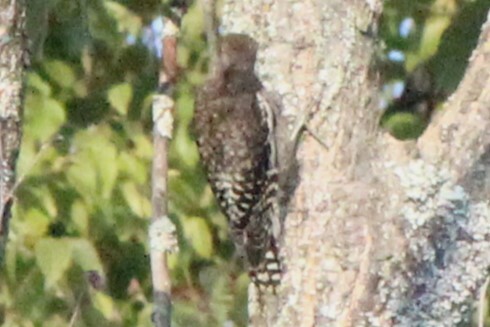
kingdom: Animalia
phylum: Chordata
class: Aves
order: Piciformes
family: Picidae
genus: Sphyrapicus
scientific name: Sphyrapicus varius
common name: Yellow-bellied sapsucker
